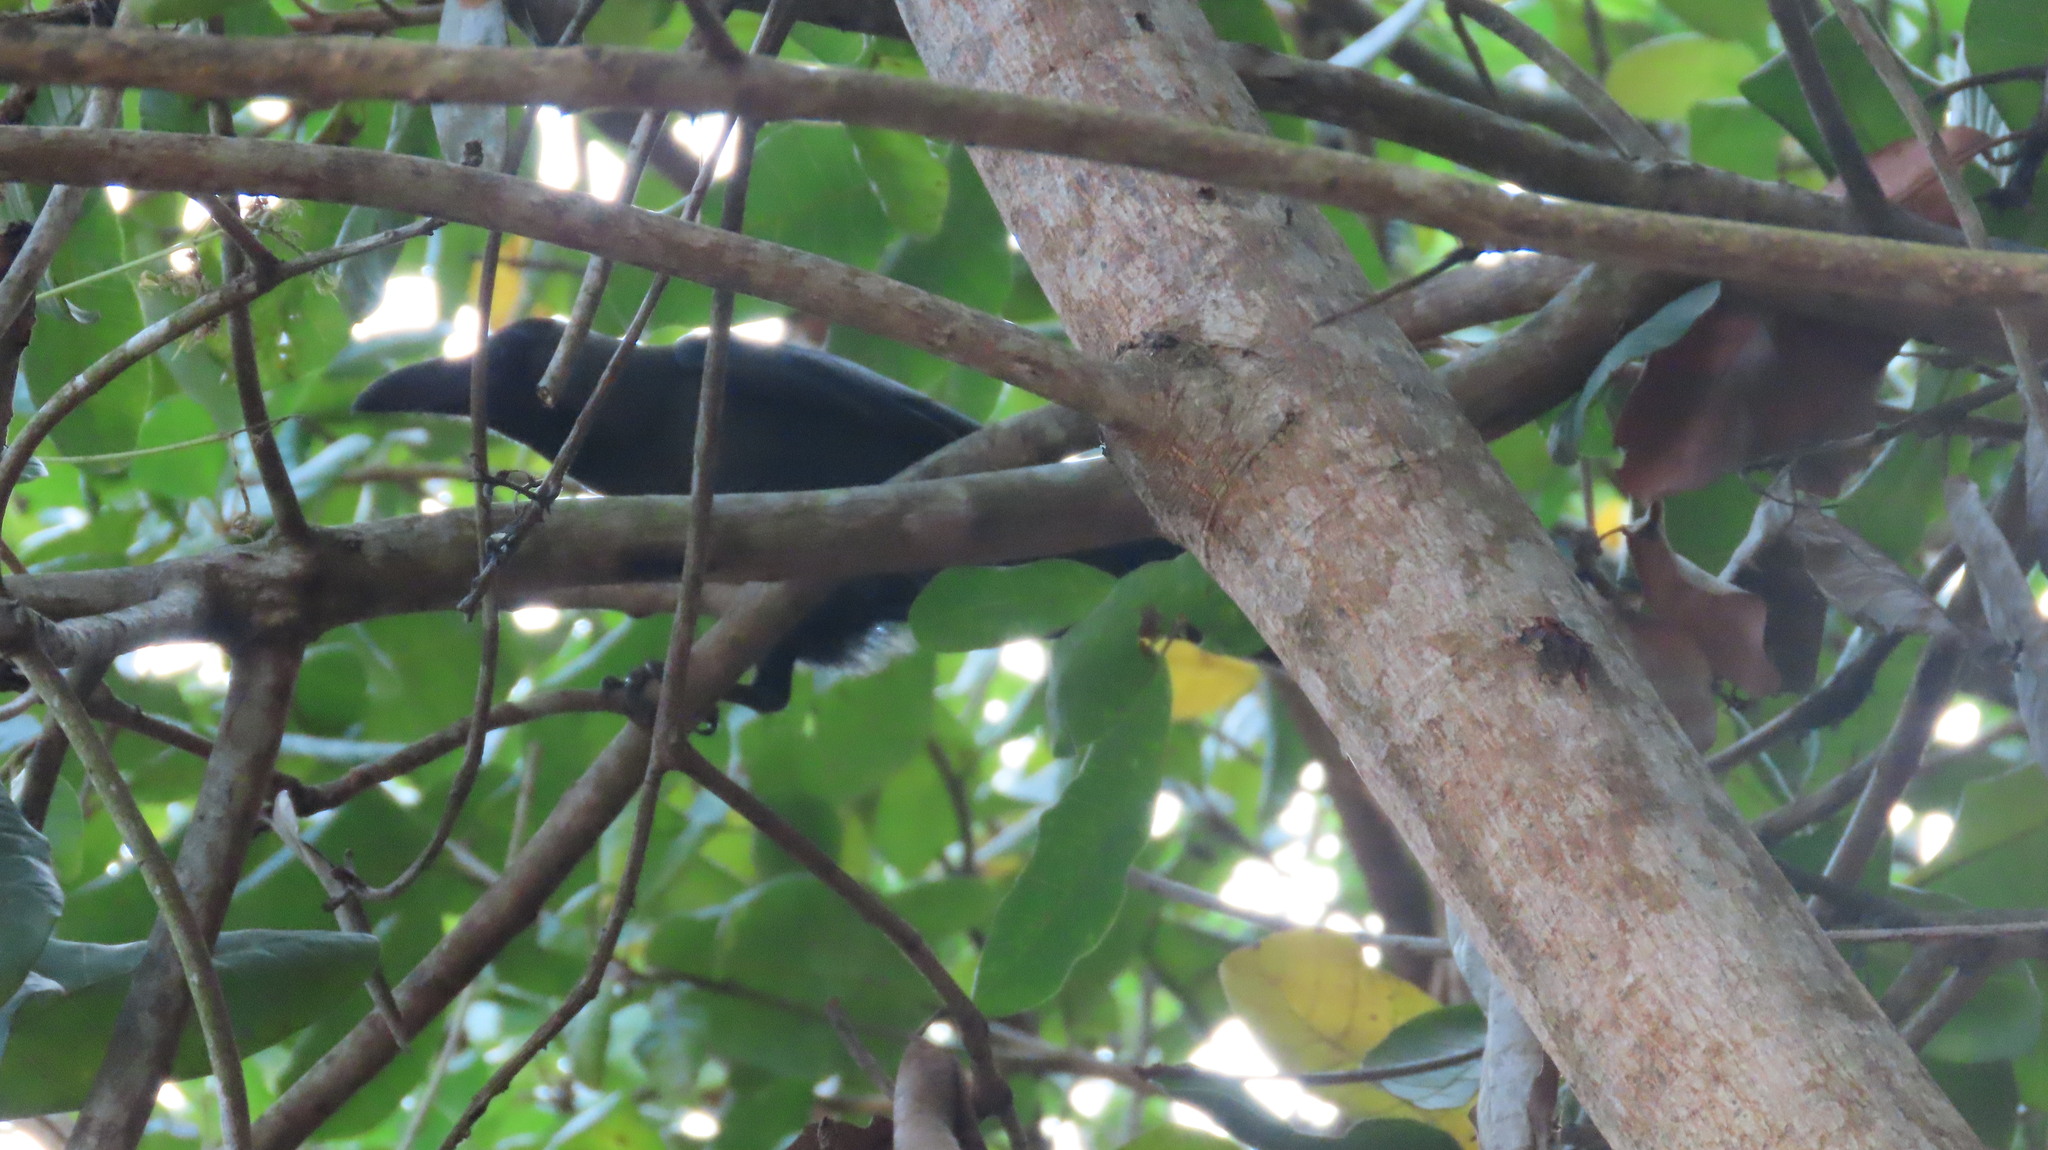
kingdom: Animalia
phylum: Chordata
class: Aves
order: Passeriformes
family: Corvidae
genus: Corvus
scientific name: Corvus splendens
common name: House crow
